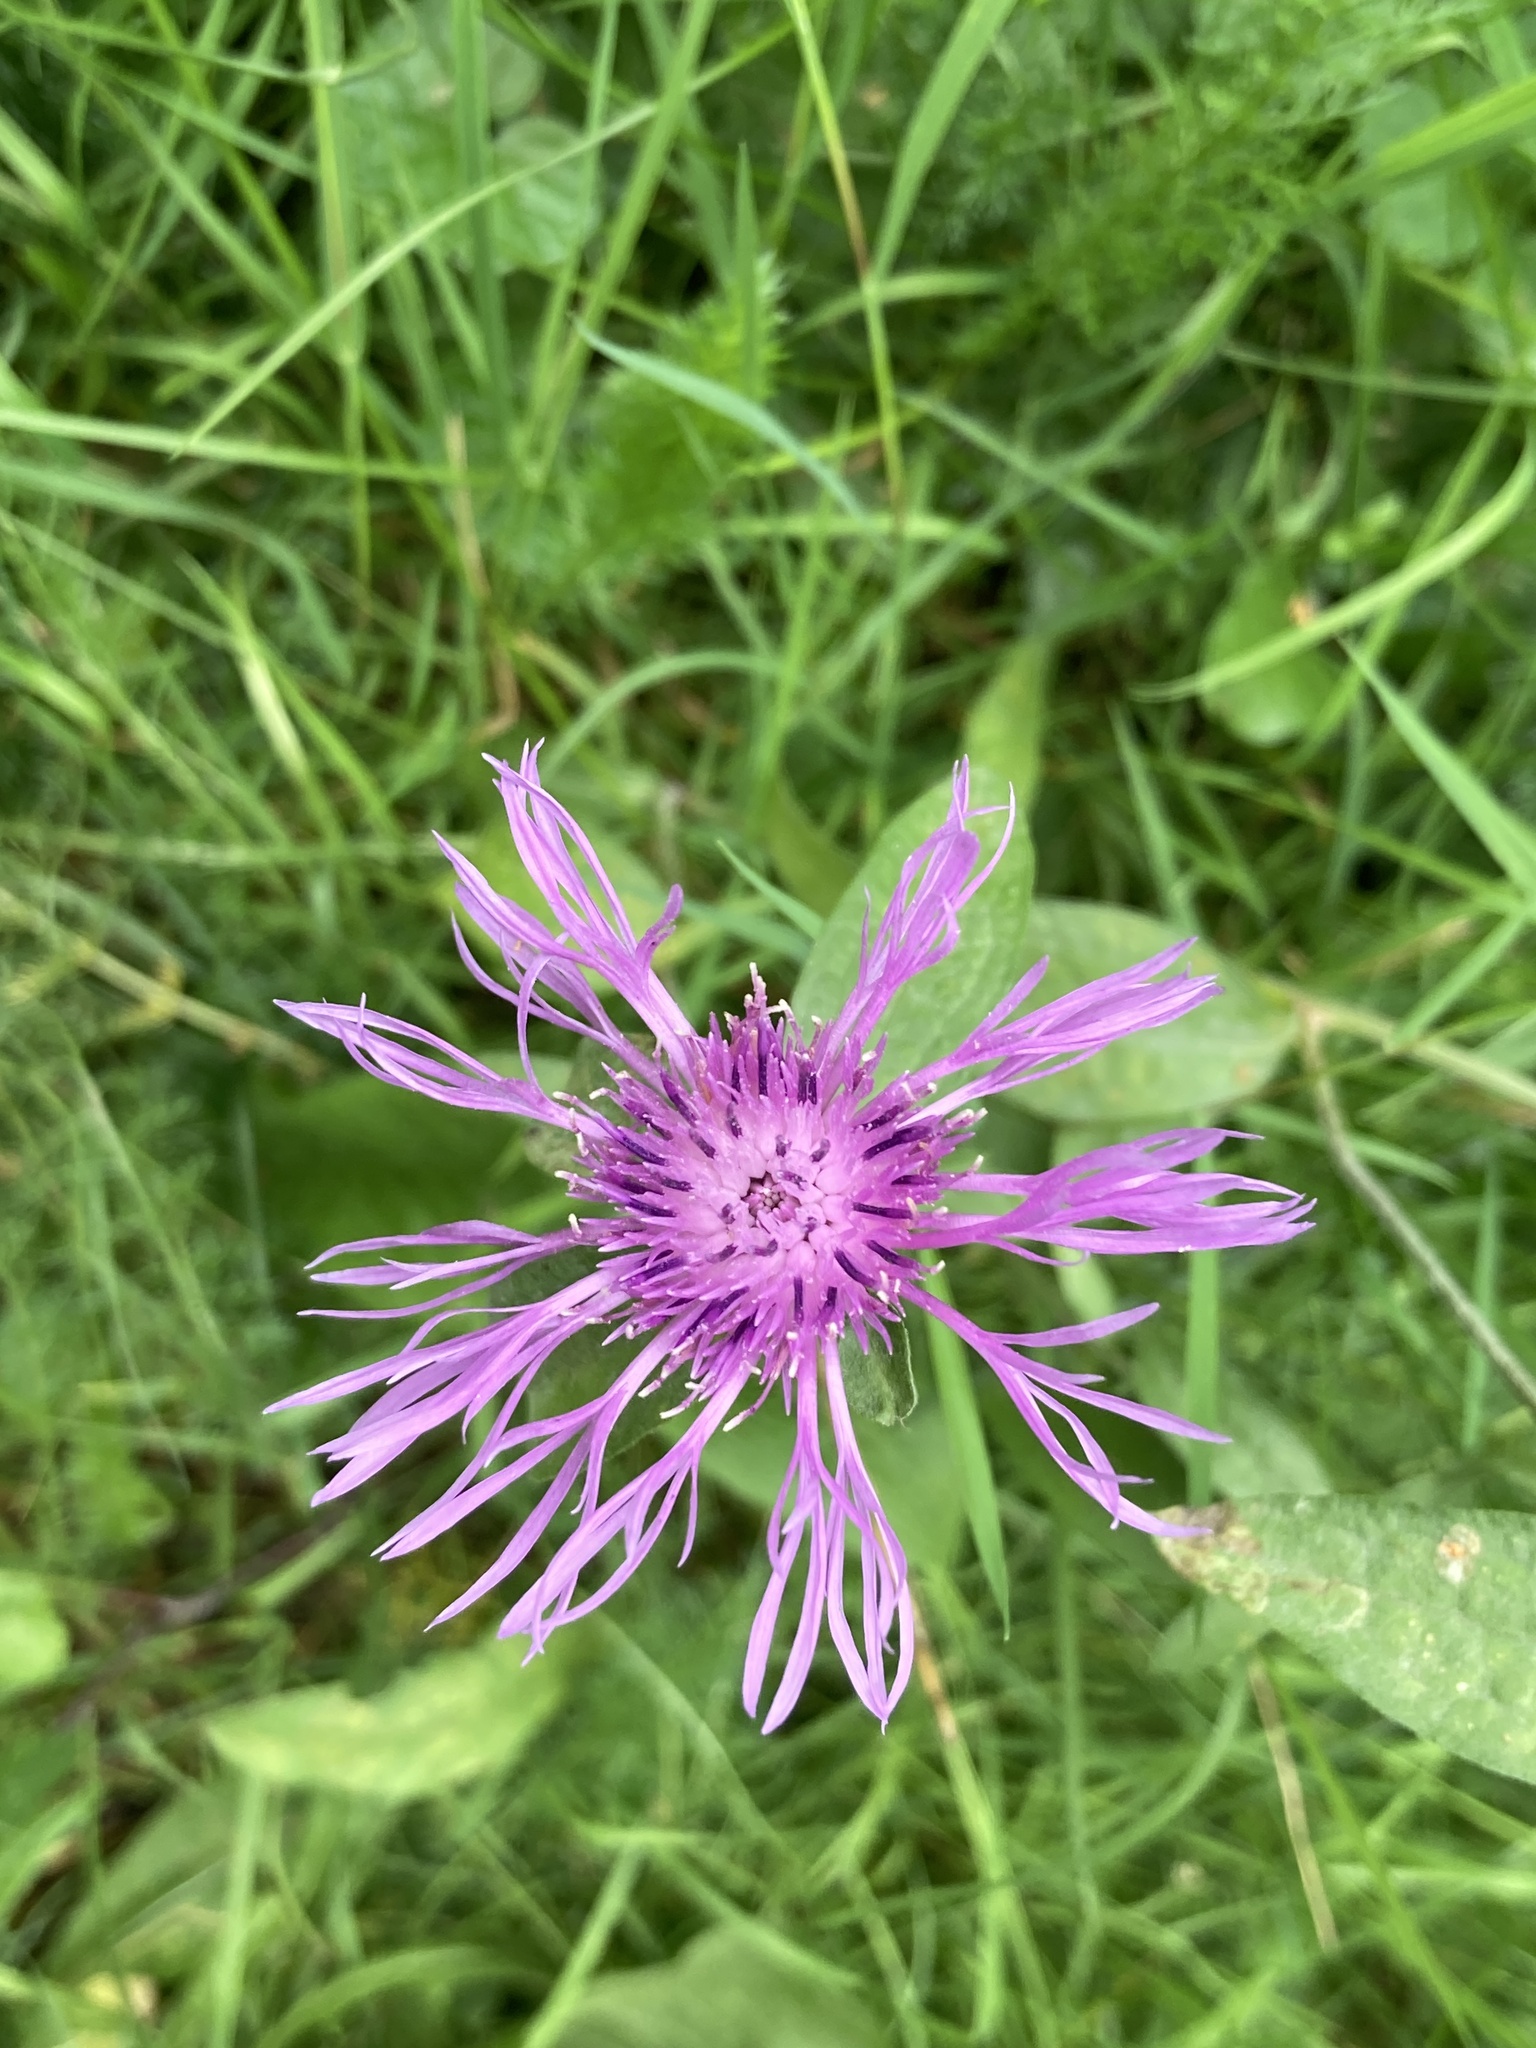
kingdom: Plantae
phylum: Tracheophyta
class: Magnoliopsida
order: Asterales
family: Asteraceae
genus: Centaurea
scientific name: Centaurea jacea
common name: Brown knapweed
